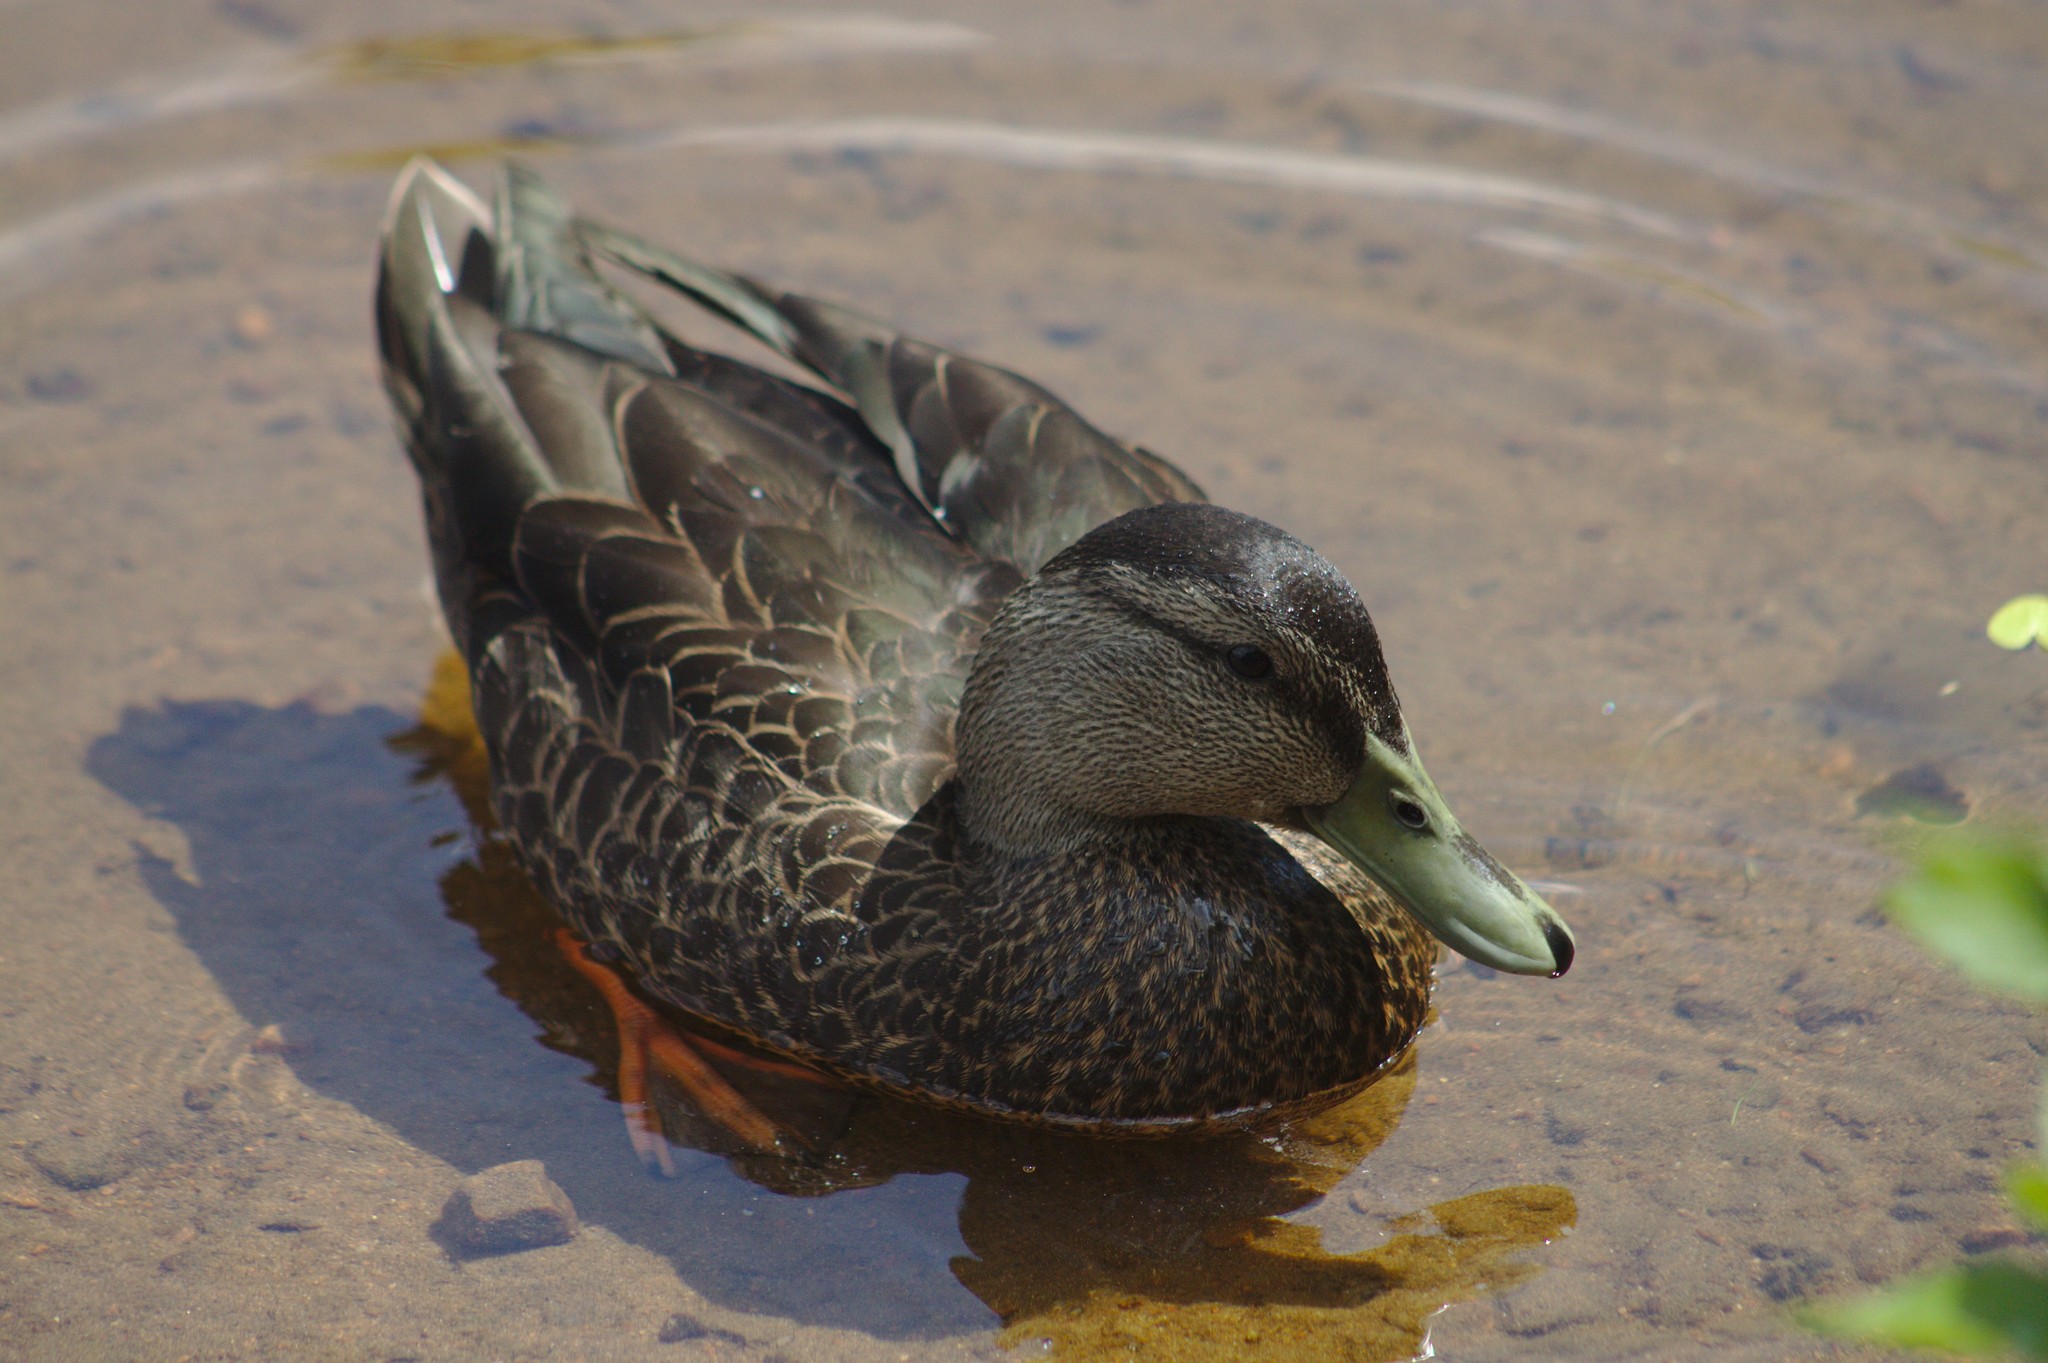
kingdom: Animalia
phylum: Chordata
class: Aves
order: Anseriformes
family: Anatidae
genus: Anas
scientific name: Anas rubripes
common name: American black duck
